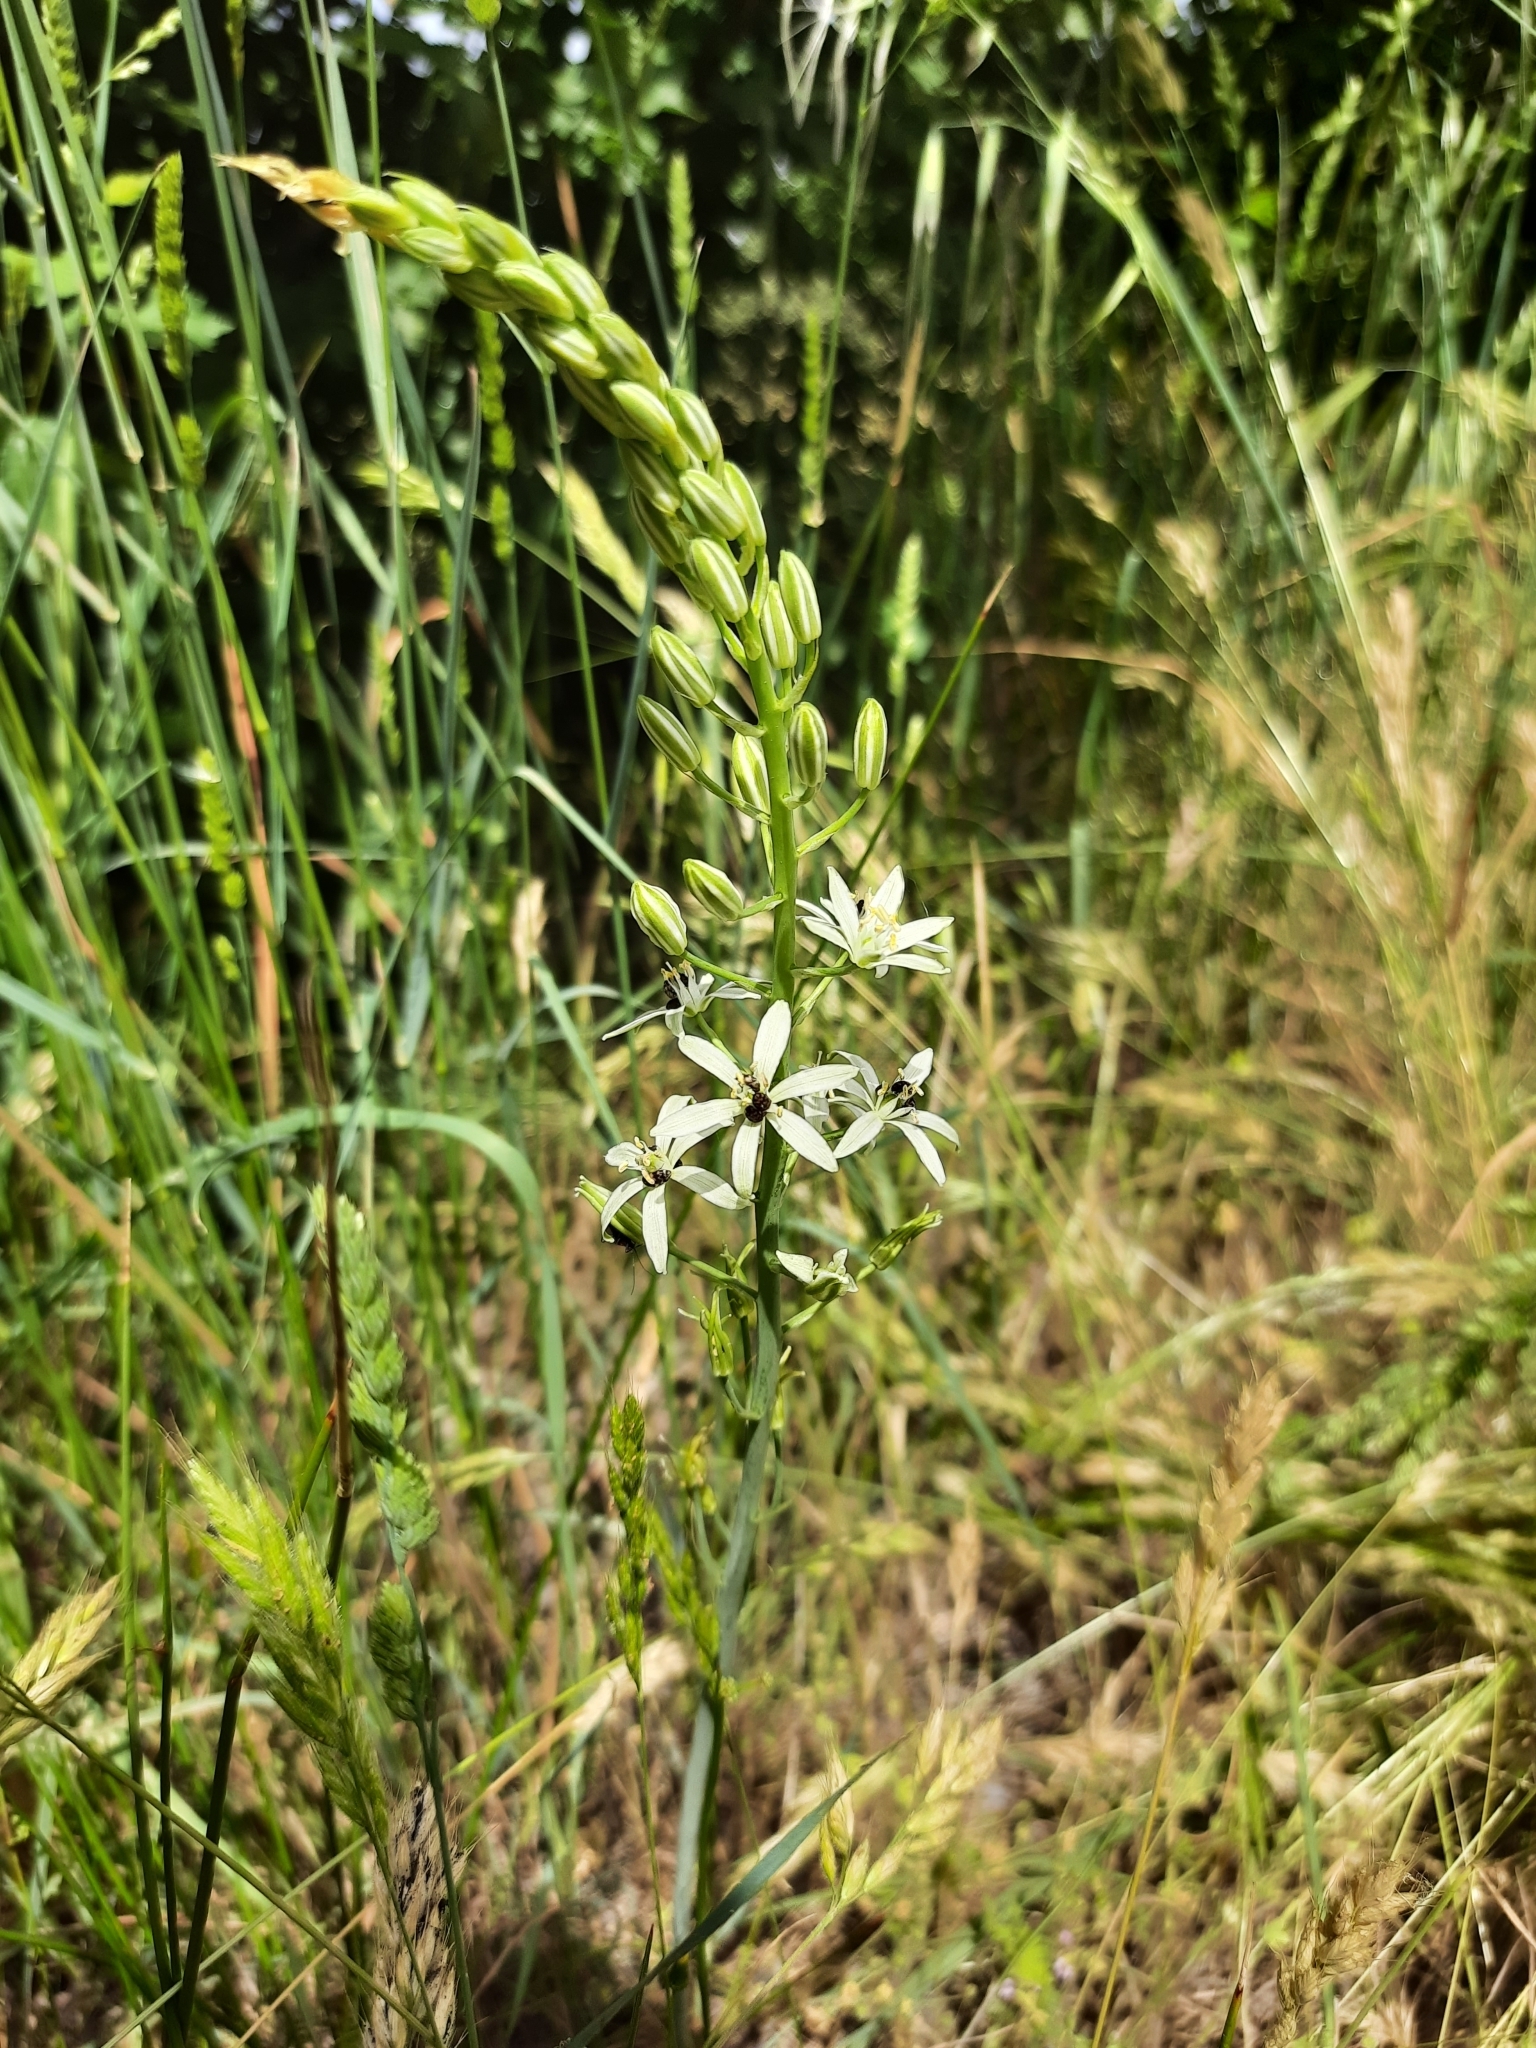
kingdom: Plantae
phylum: Tracheophyta
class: Liliopsida
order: Asparagales
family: Asparagaceae
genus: Ornithogalum
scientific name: Ornithogalum narbonense
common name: Bath-asparagus
